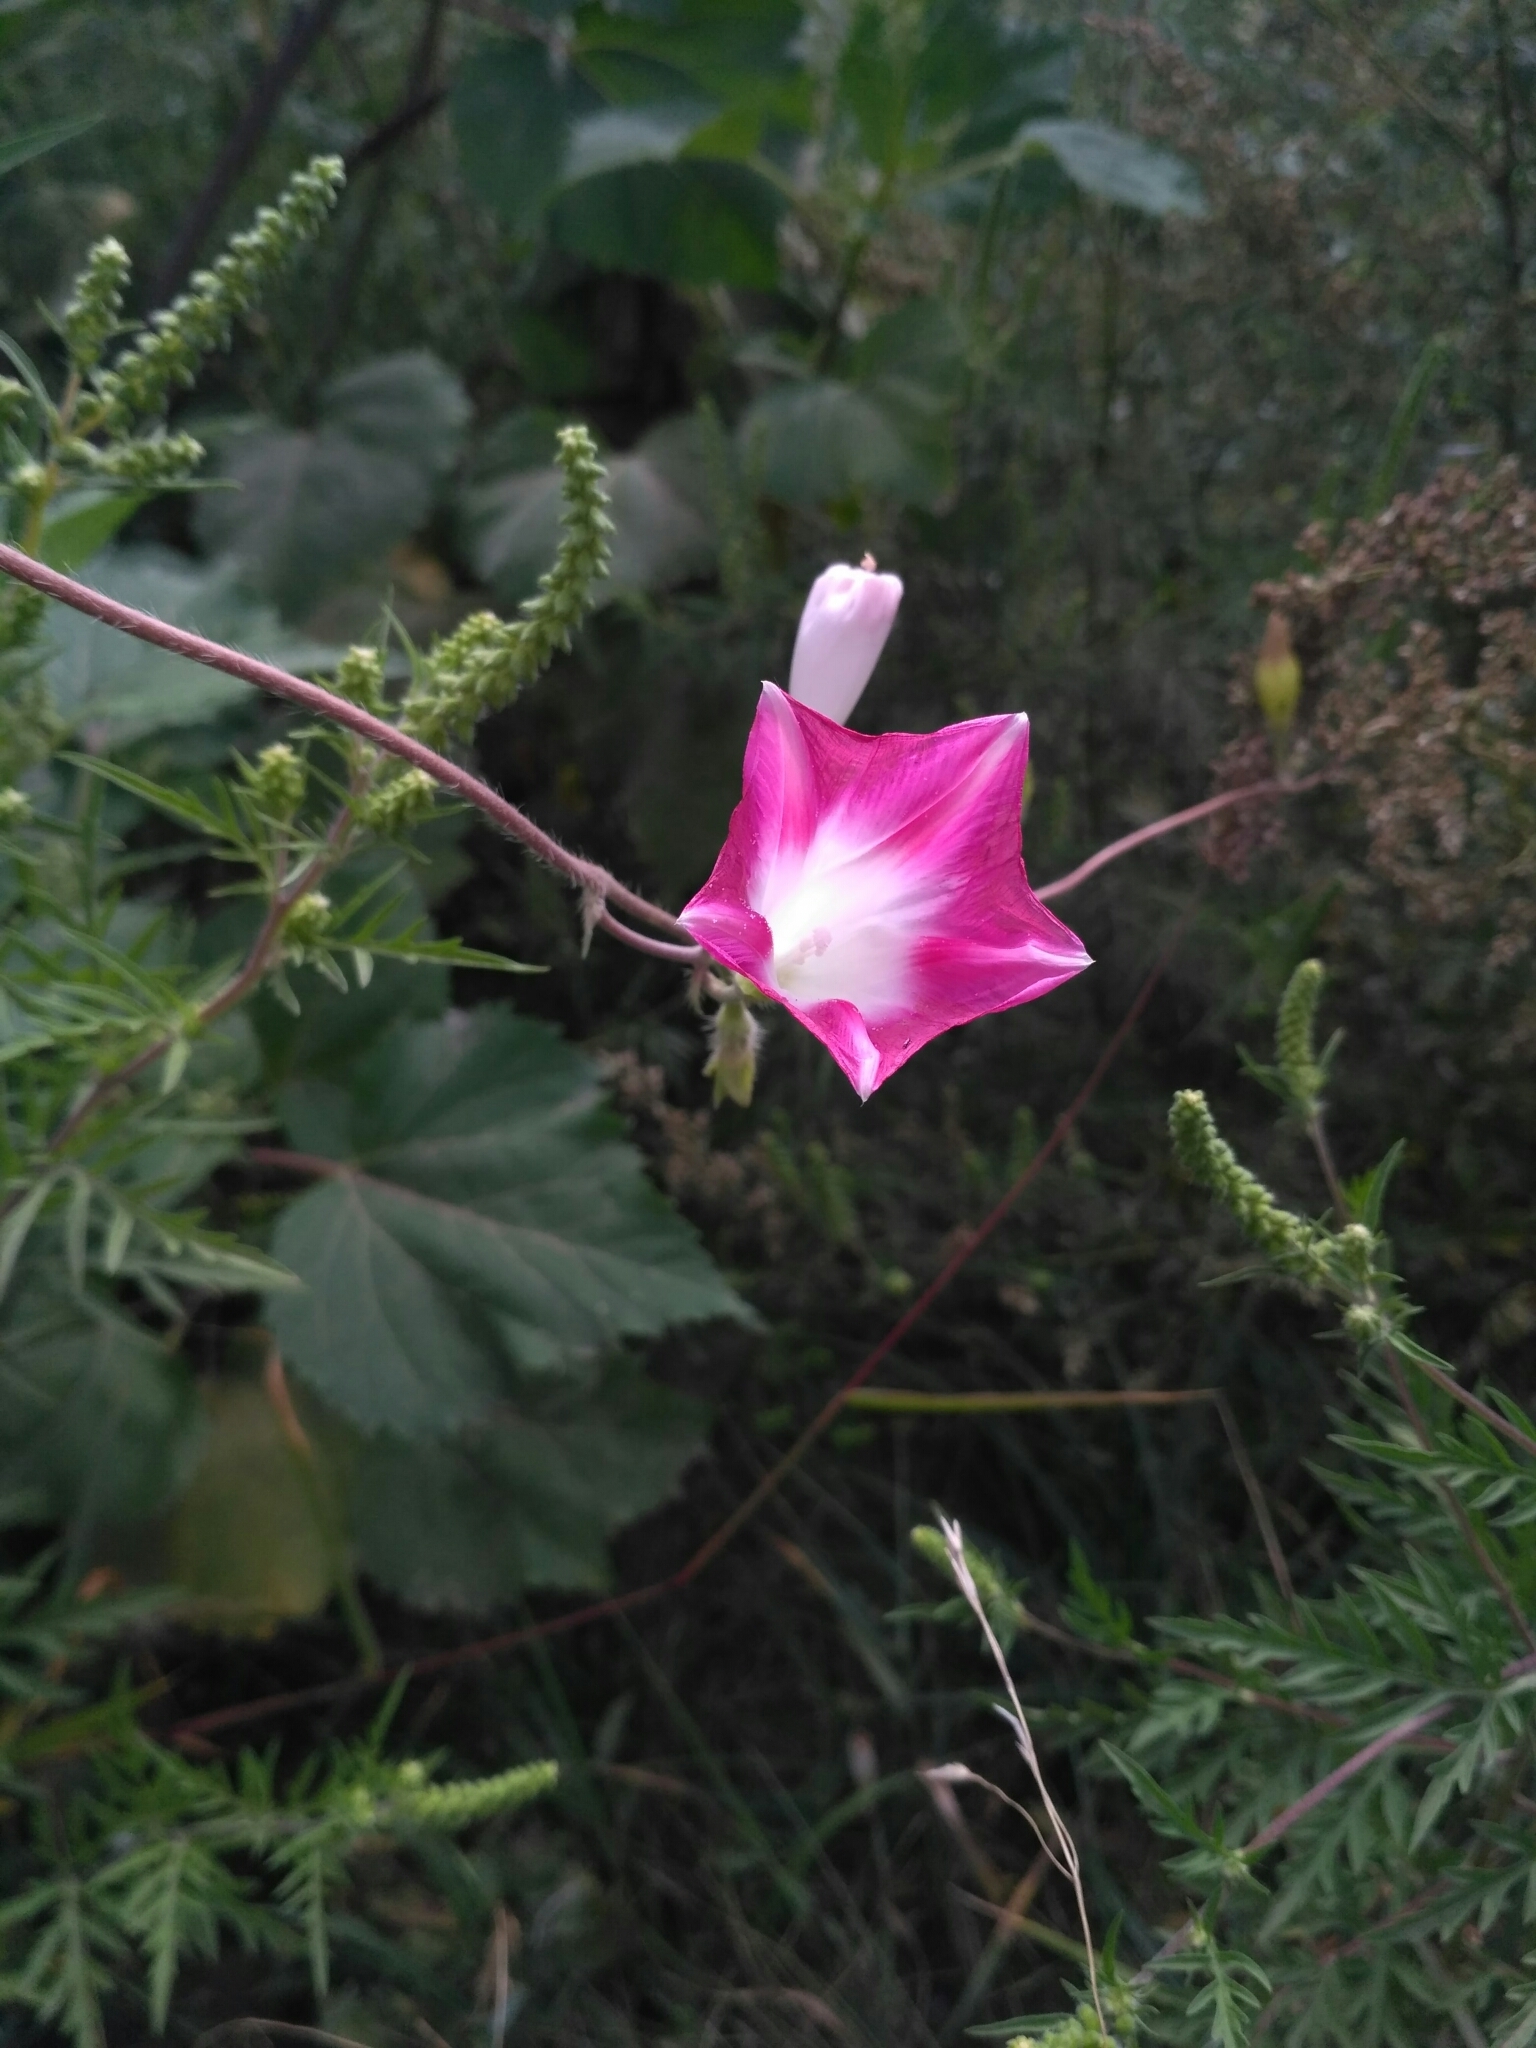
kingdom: Plantae
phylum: Tracheophyta
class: Magnoliopsida
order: Solanales
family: Convolvulaceae
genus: Ipomoea
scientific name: Ipomoea purpurea
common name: Common morning-glory
